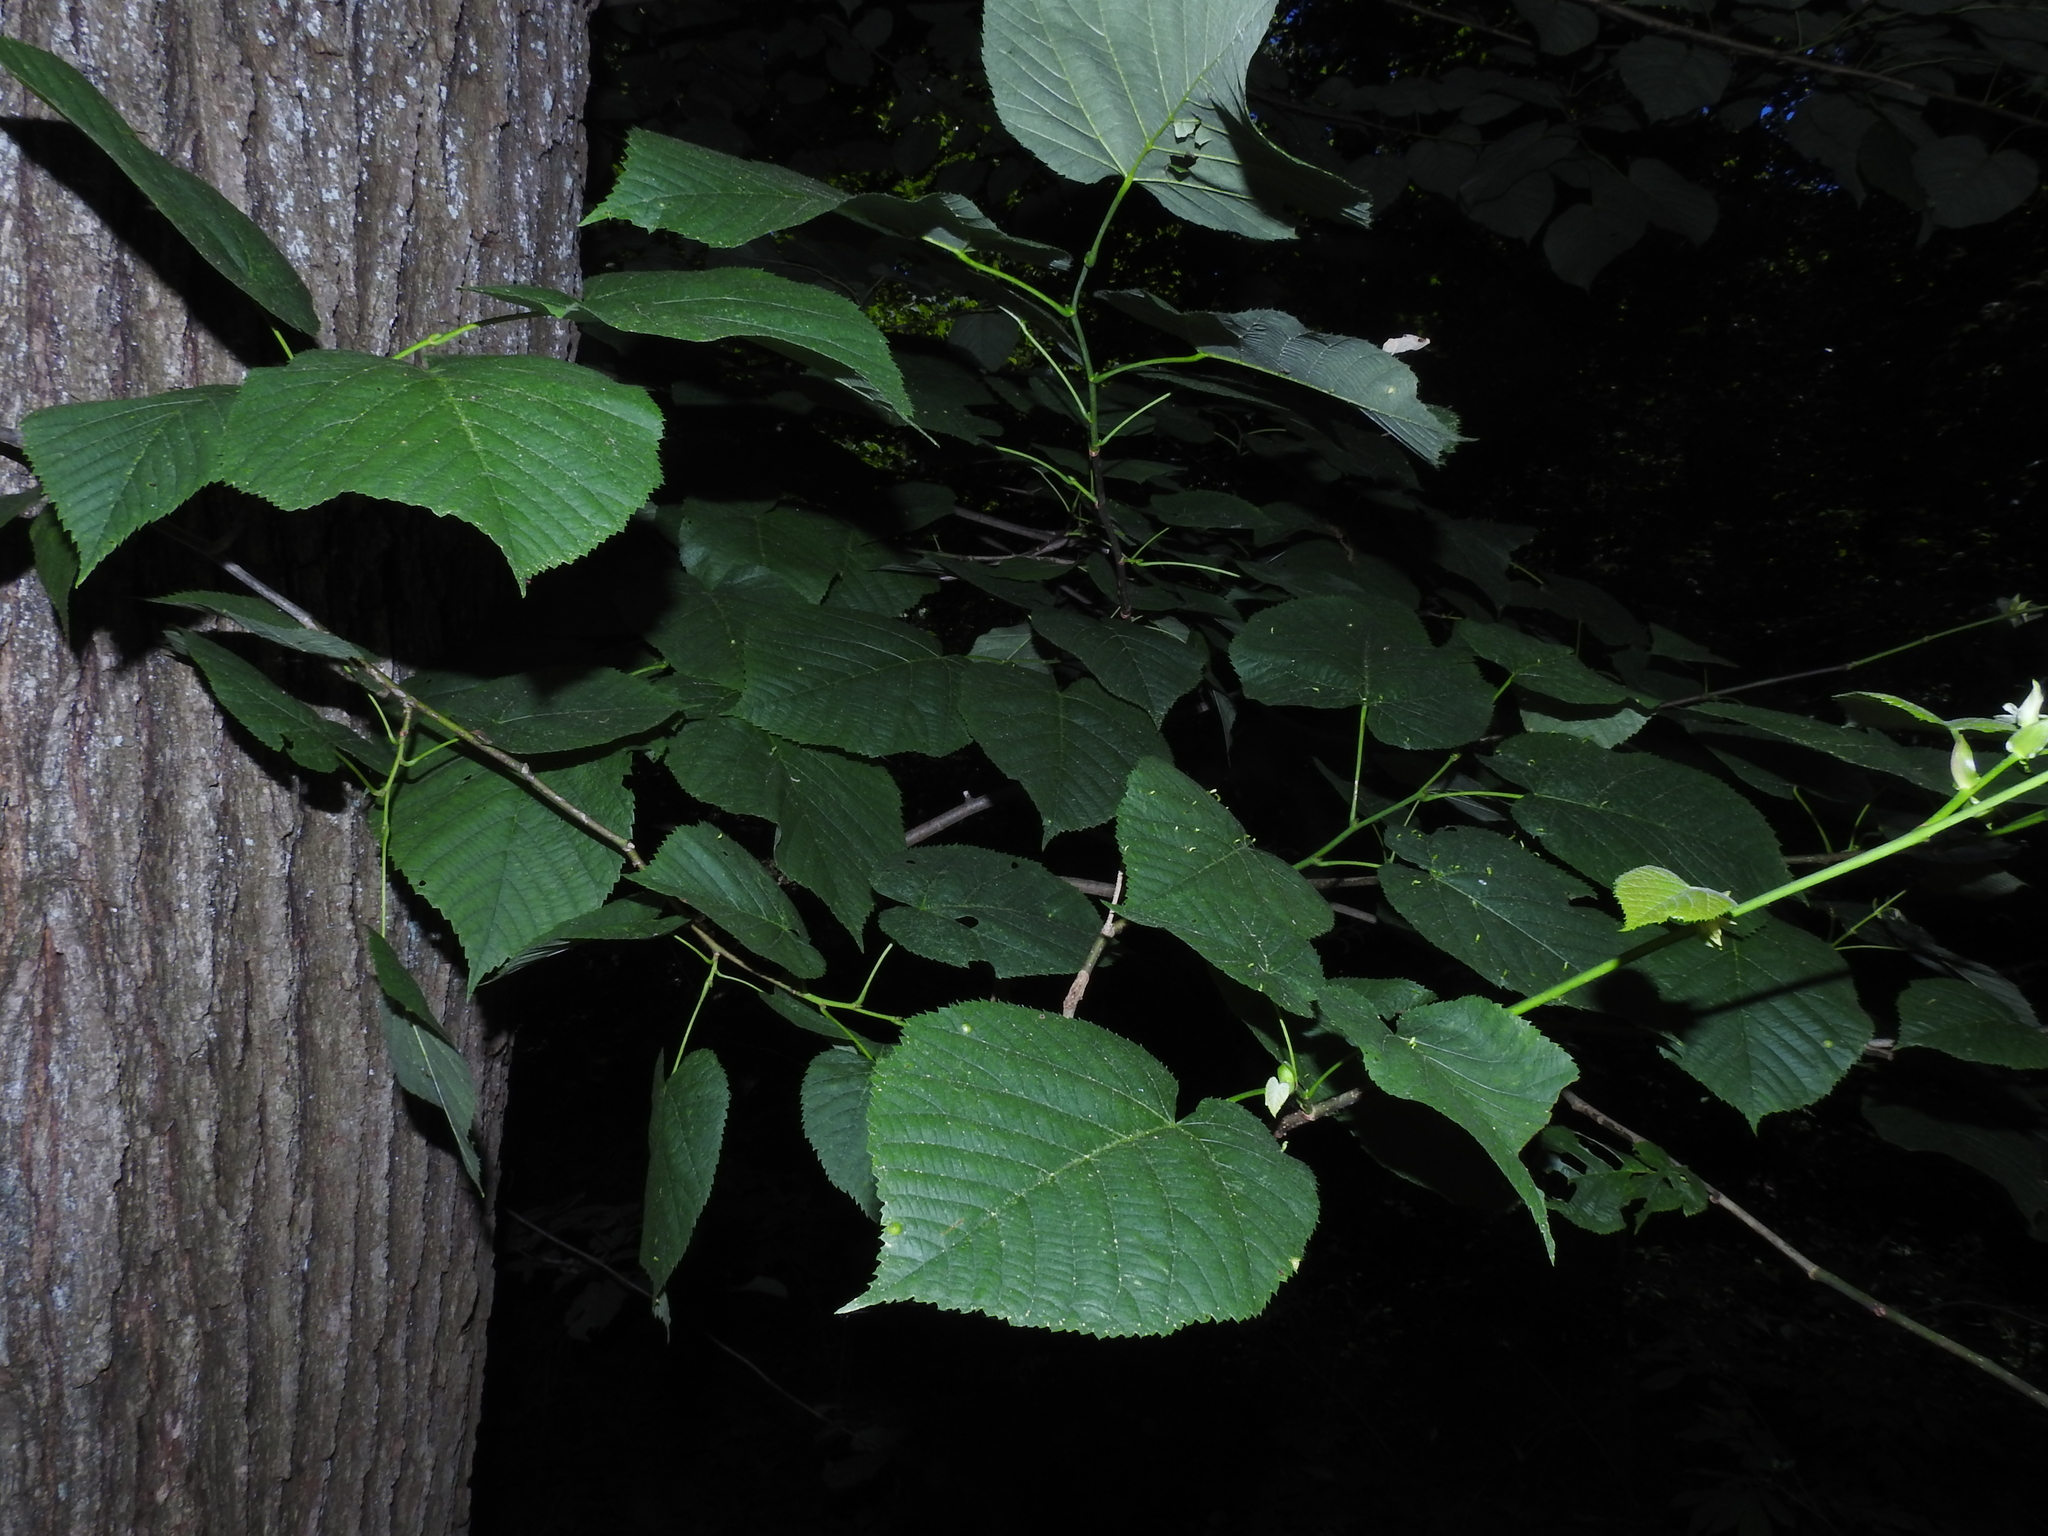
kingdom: Plantae
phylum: Tracheophyta
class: Magnoliopsida
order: Malvales
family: Malvaceae
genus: Tilia
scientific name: Tilia americana
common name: Basswood
